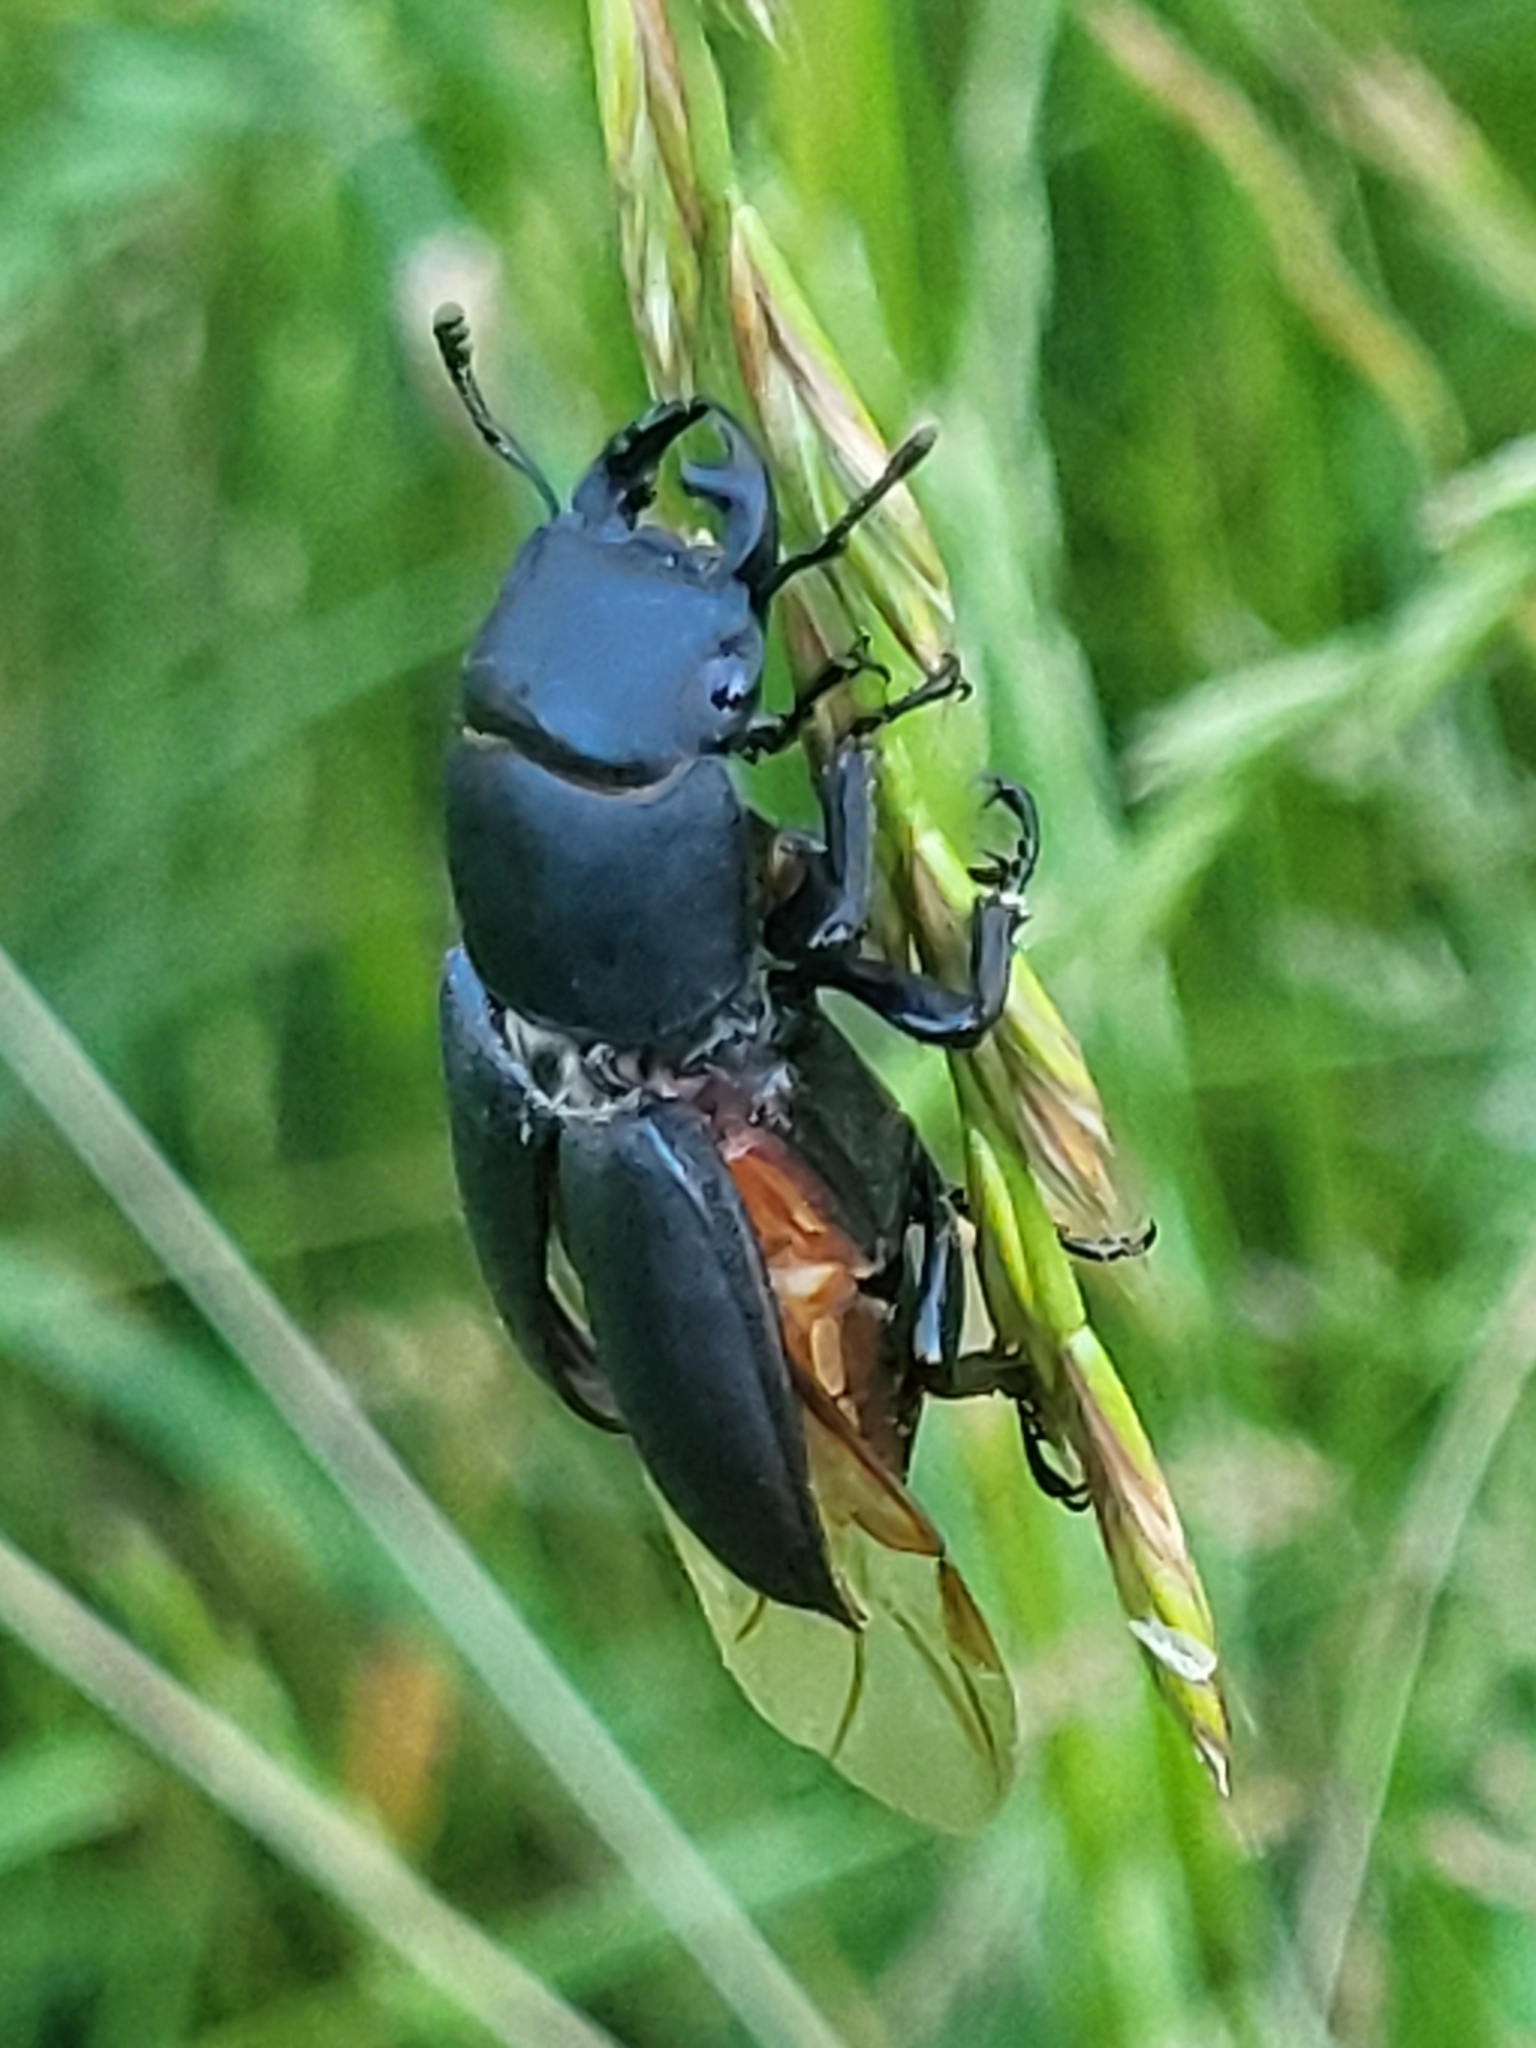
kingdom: Animalia
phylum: Arthropoda
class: Insecta
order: Coleoptera
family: Lucanidae
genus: Dorcus
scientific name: Dorcus parallelipipedus
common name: Lesser stag beetle
